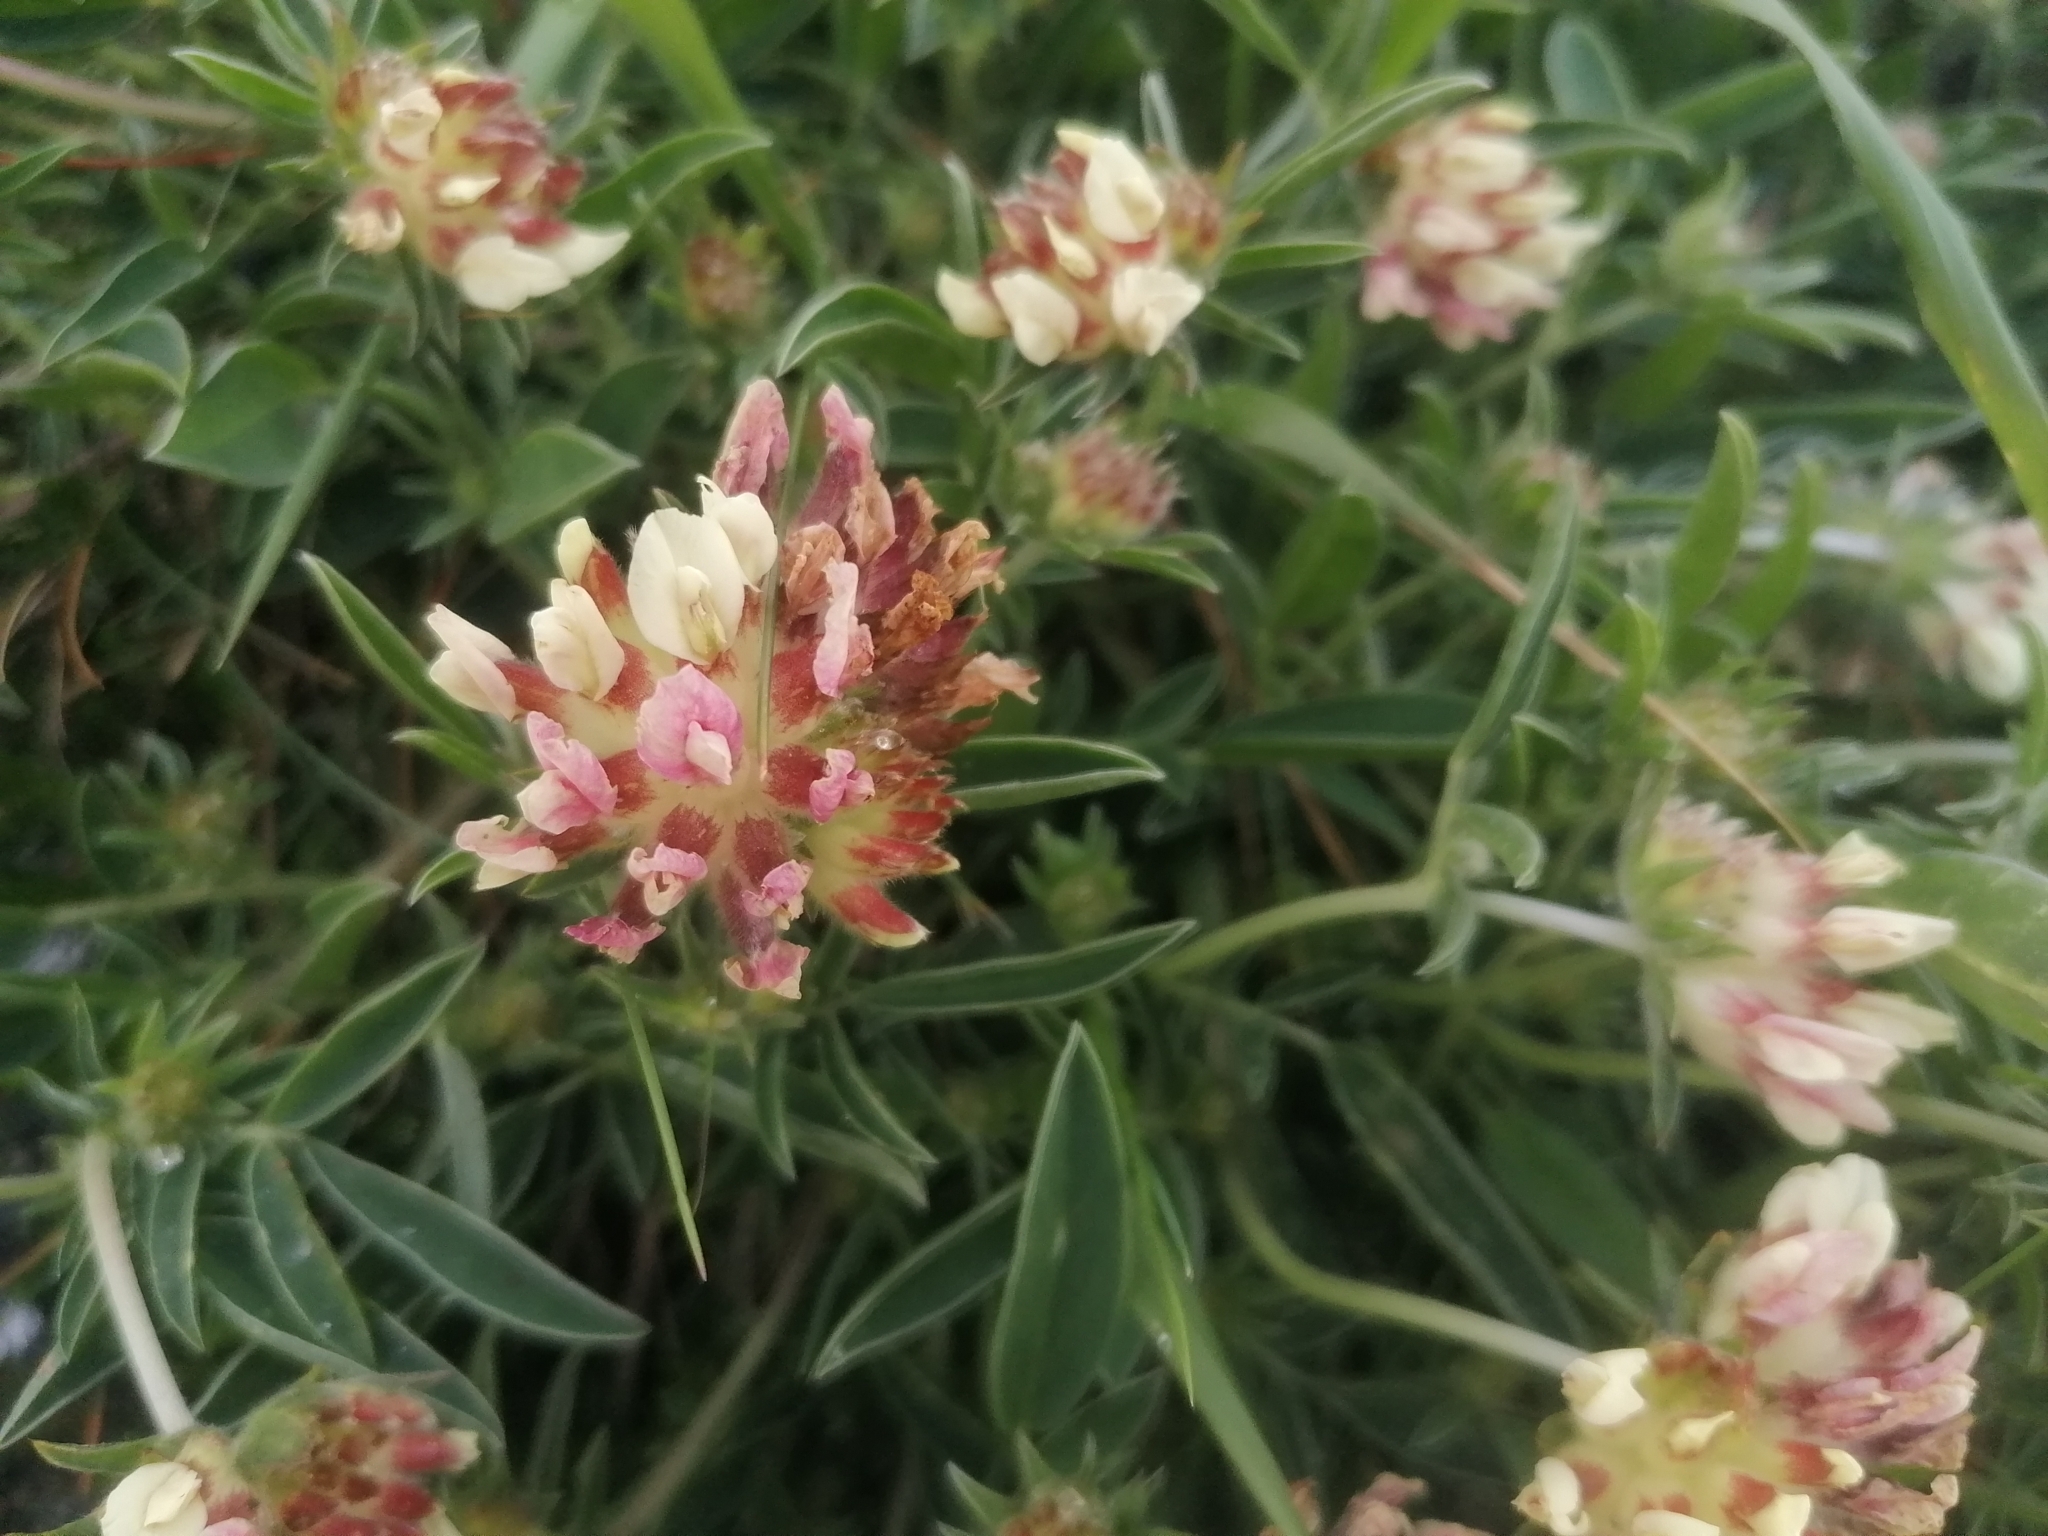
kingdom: Plantae
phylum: Tracheophyta
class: Magnoliopsida
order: Fabales
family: Fabaceae
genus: Anthyllis
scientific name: Anthyllis vulneraria
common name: Kidney vetch
